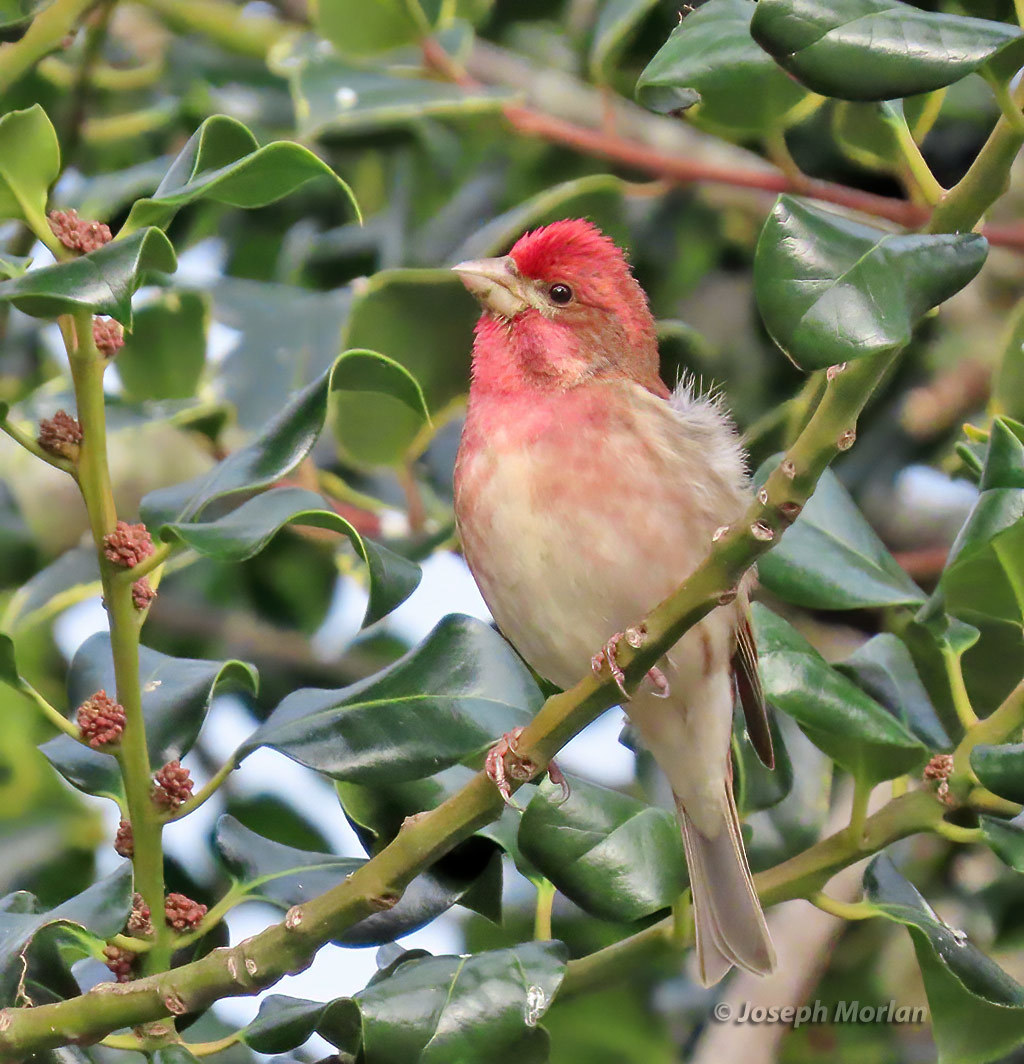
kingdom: Animalia
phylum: Chordata
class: Aves
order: Passeriformes
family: Fringillidae
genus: Haemorhous
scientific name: Haemorhous purpureus
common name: Purple finch
